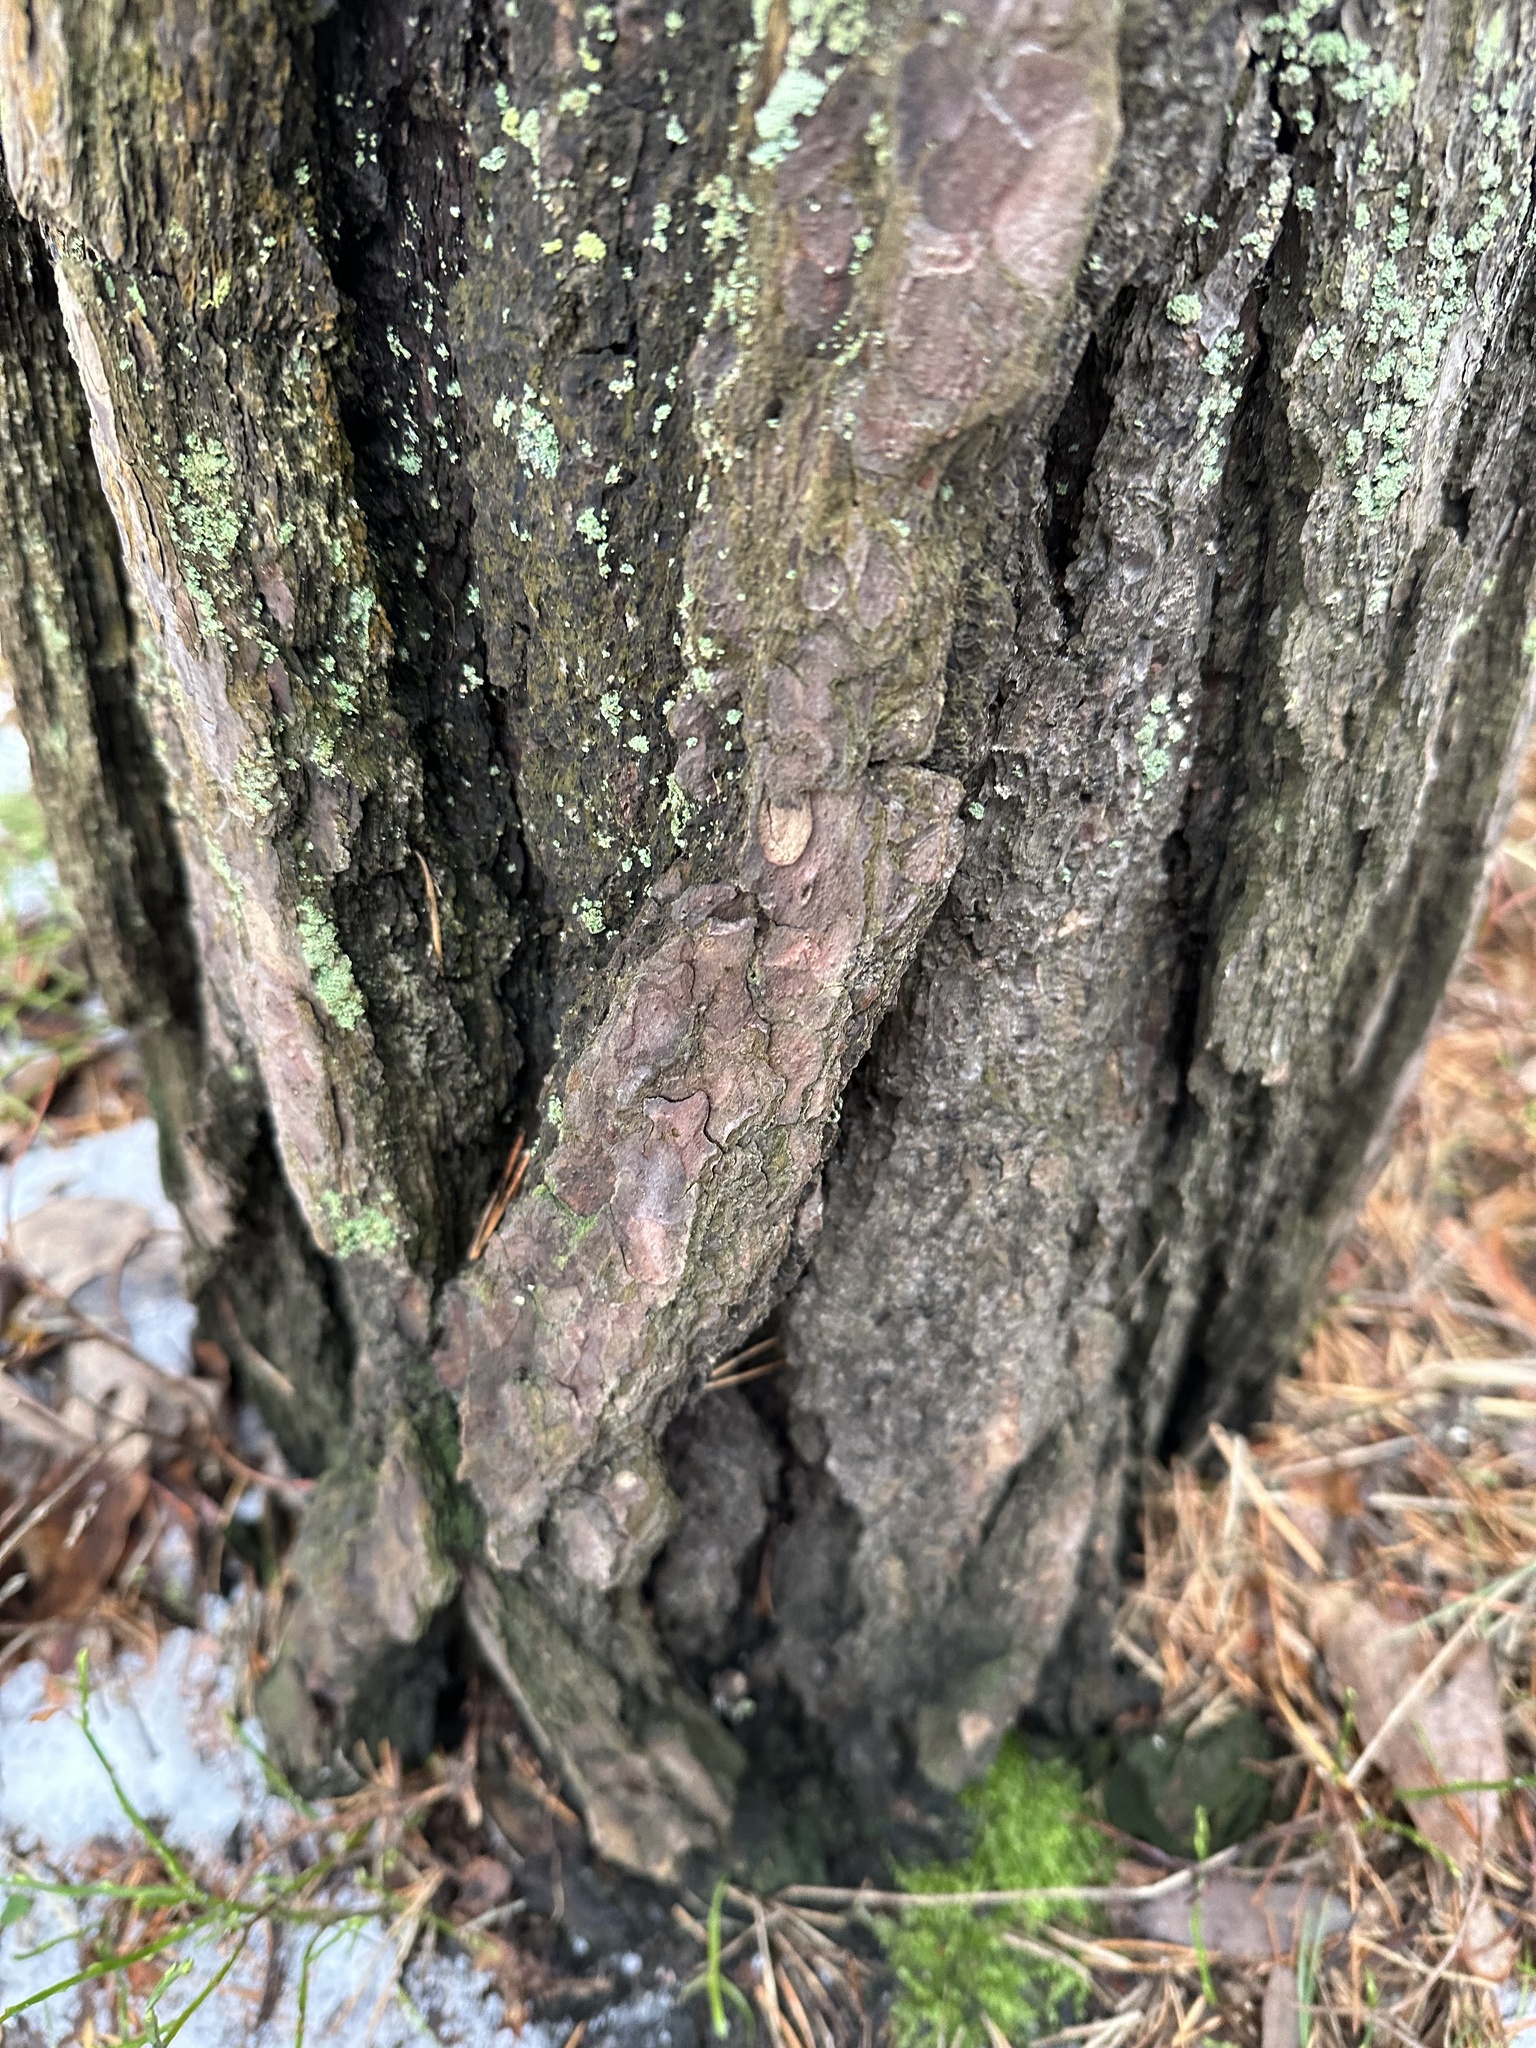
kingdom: Plantae
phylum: Tracheophyta
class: Pinopsida
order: Pinales
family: Pinaceae
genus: Pinus
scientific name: Pinus sylvestris
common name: Scots pine
